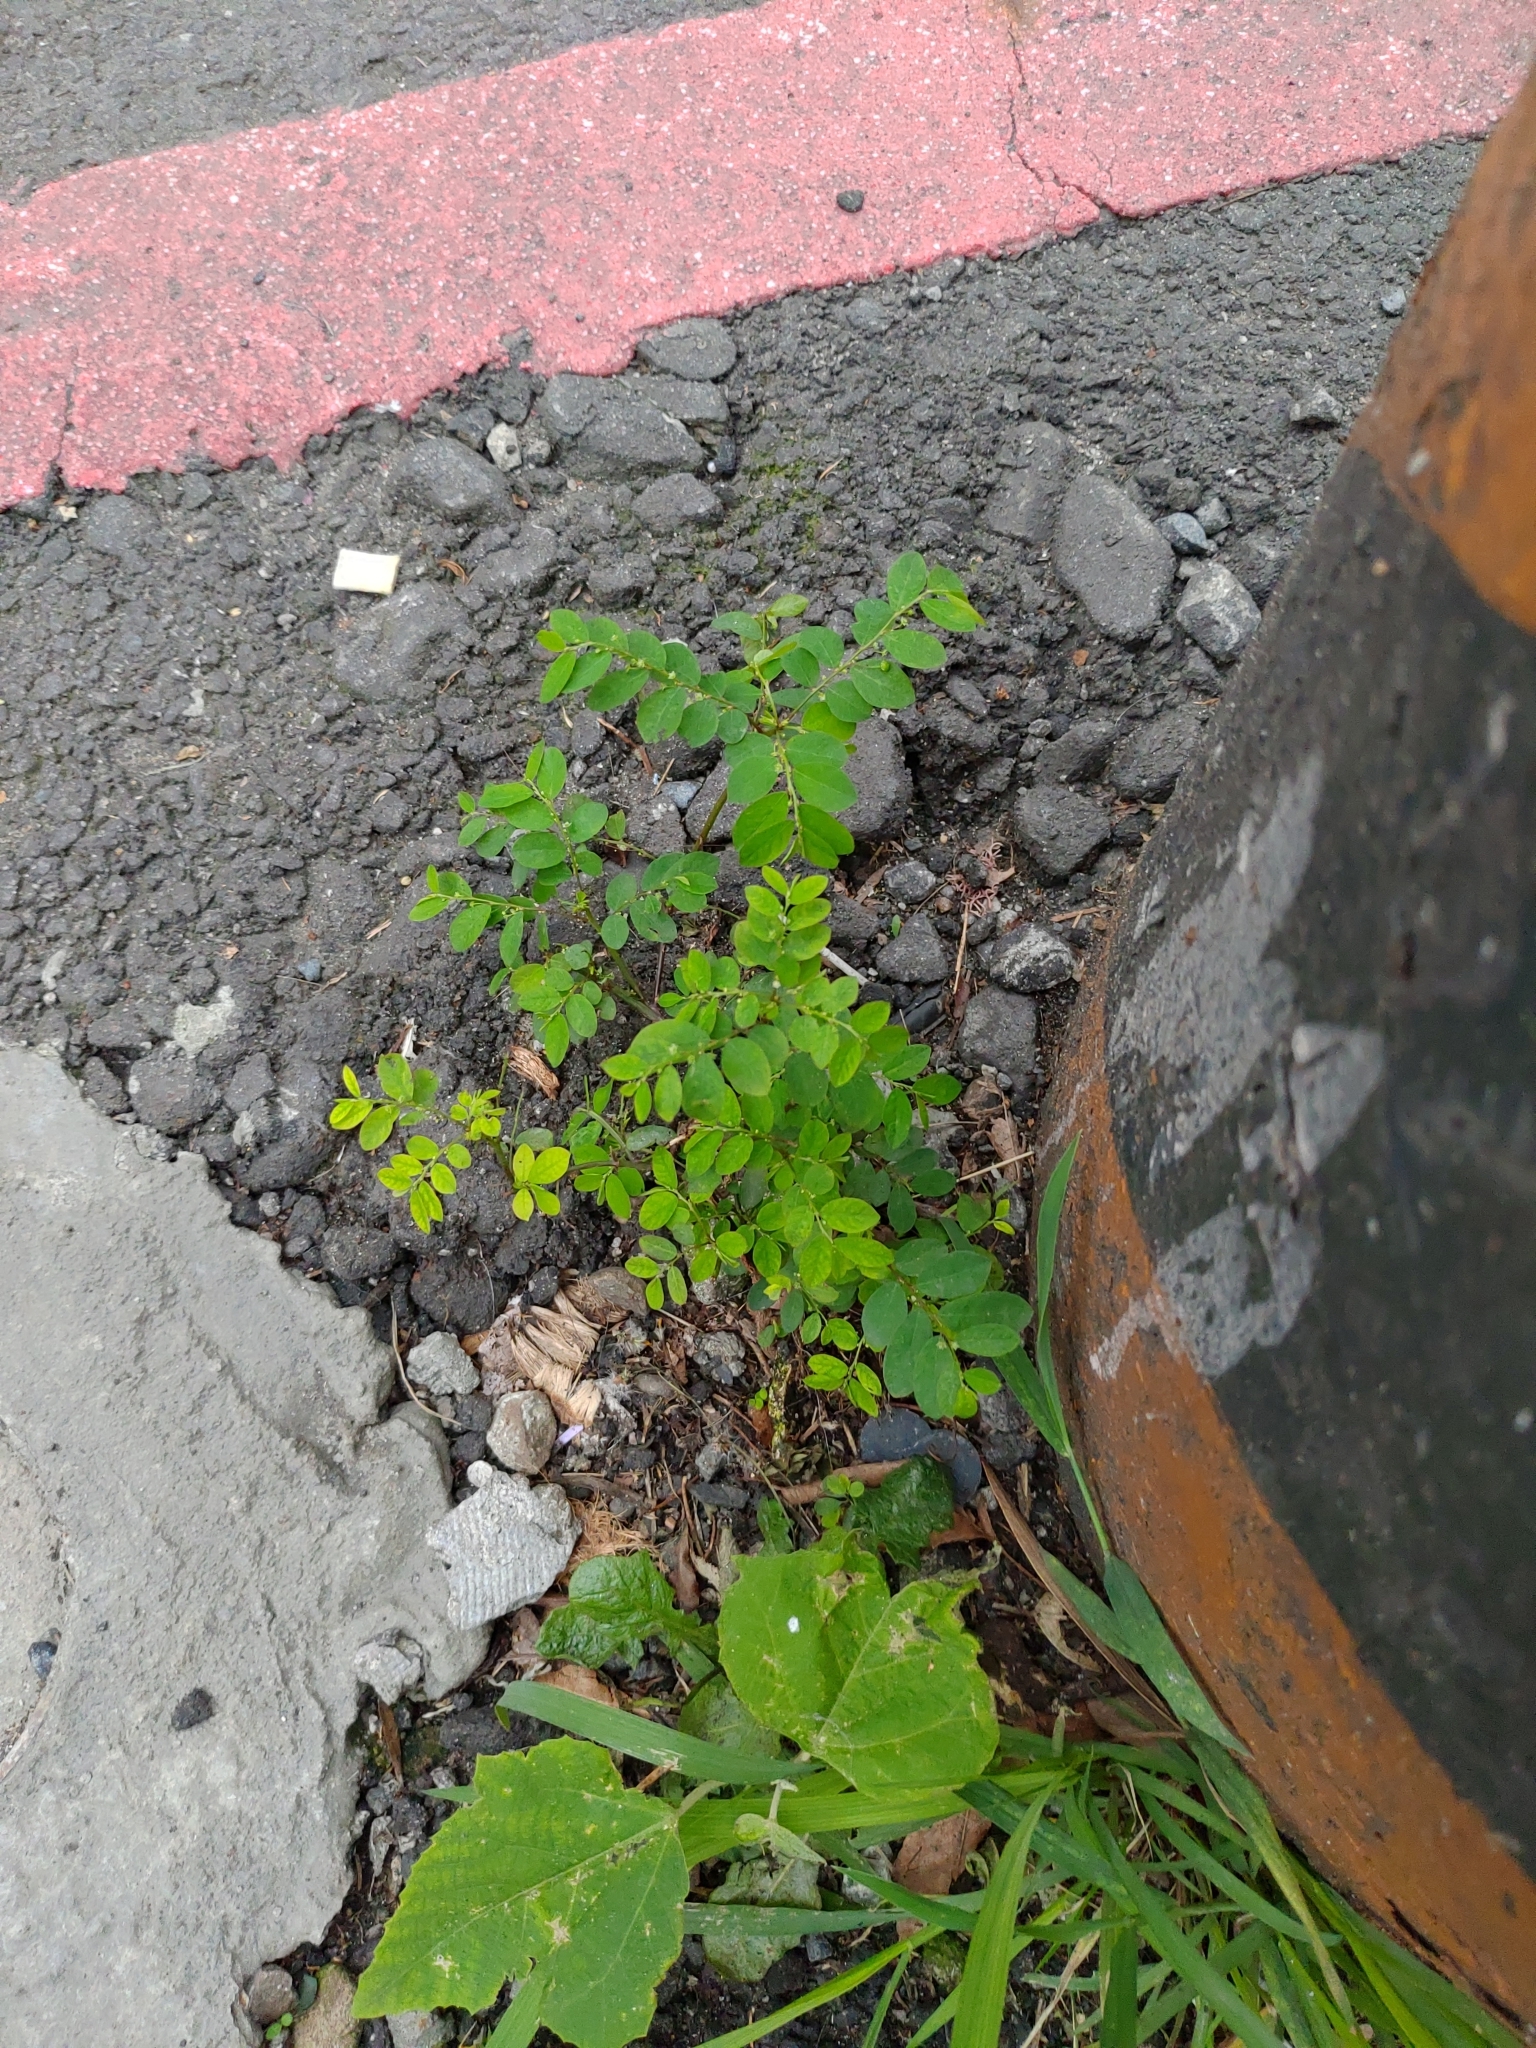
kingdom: Plantae
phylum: Tracheophyta
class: Magnoliopsida
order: Malpighiales
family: Phyllanthaceae
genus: Phyllanthus
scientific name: Phyllanthus tenellus
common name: Mascarene island leaf-flower
